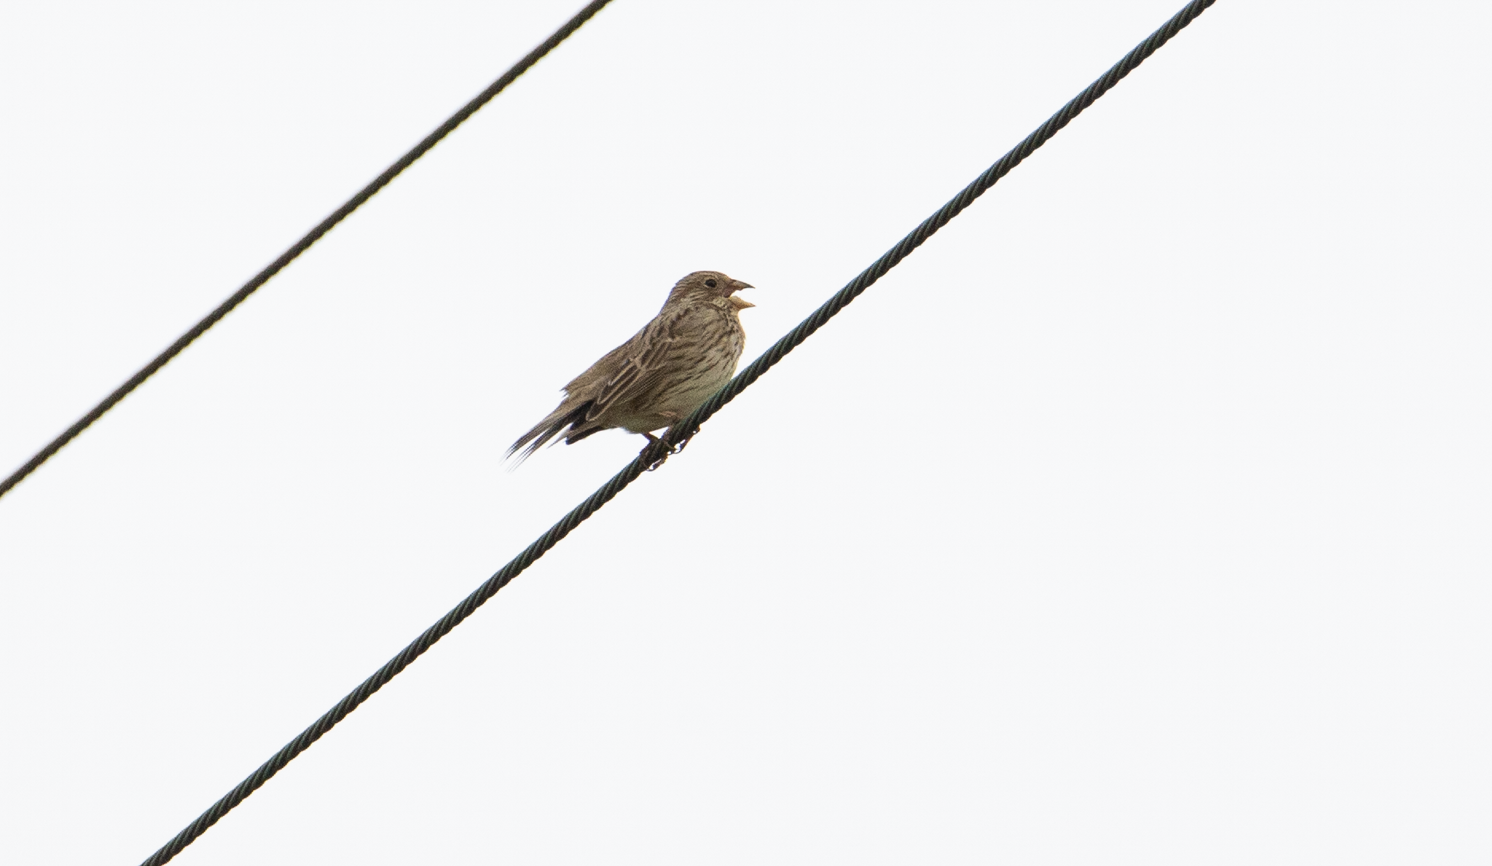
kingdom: Animalia
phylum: Chordata
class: Aves
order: Passeriformes
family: Emberizidae
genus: Emberiza
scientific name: Emberiza calandra
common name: Corn bunting
